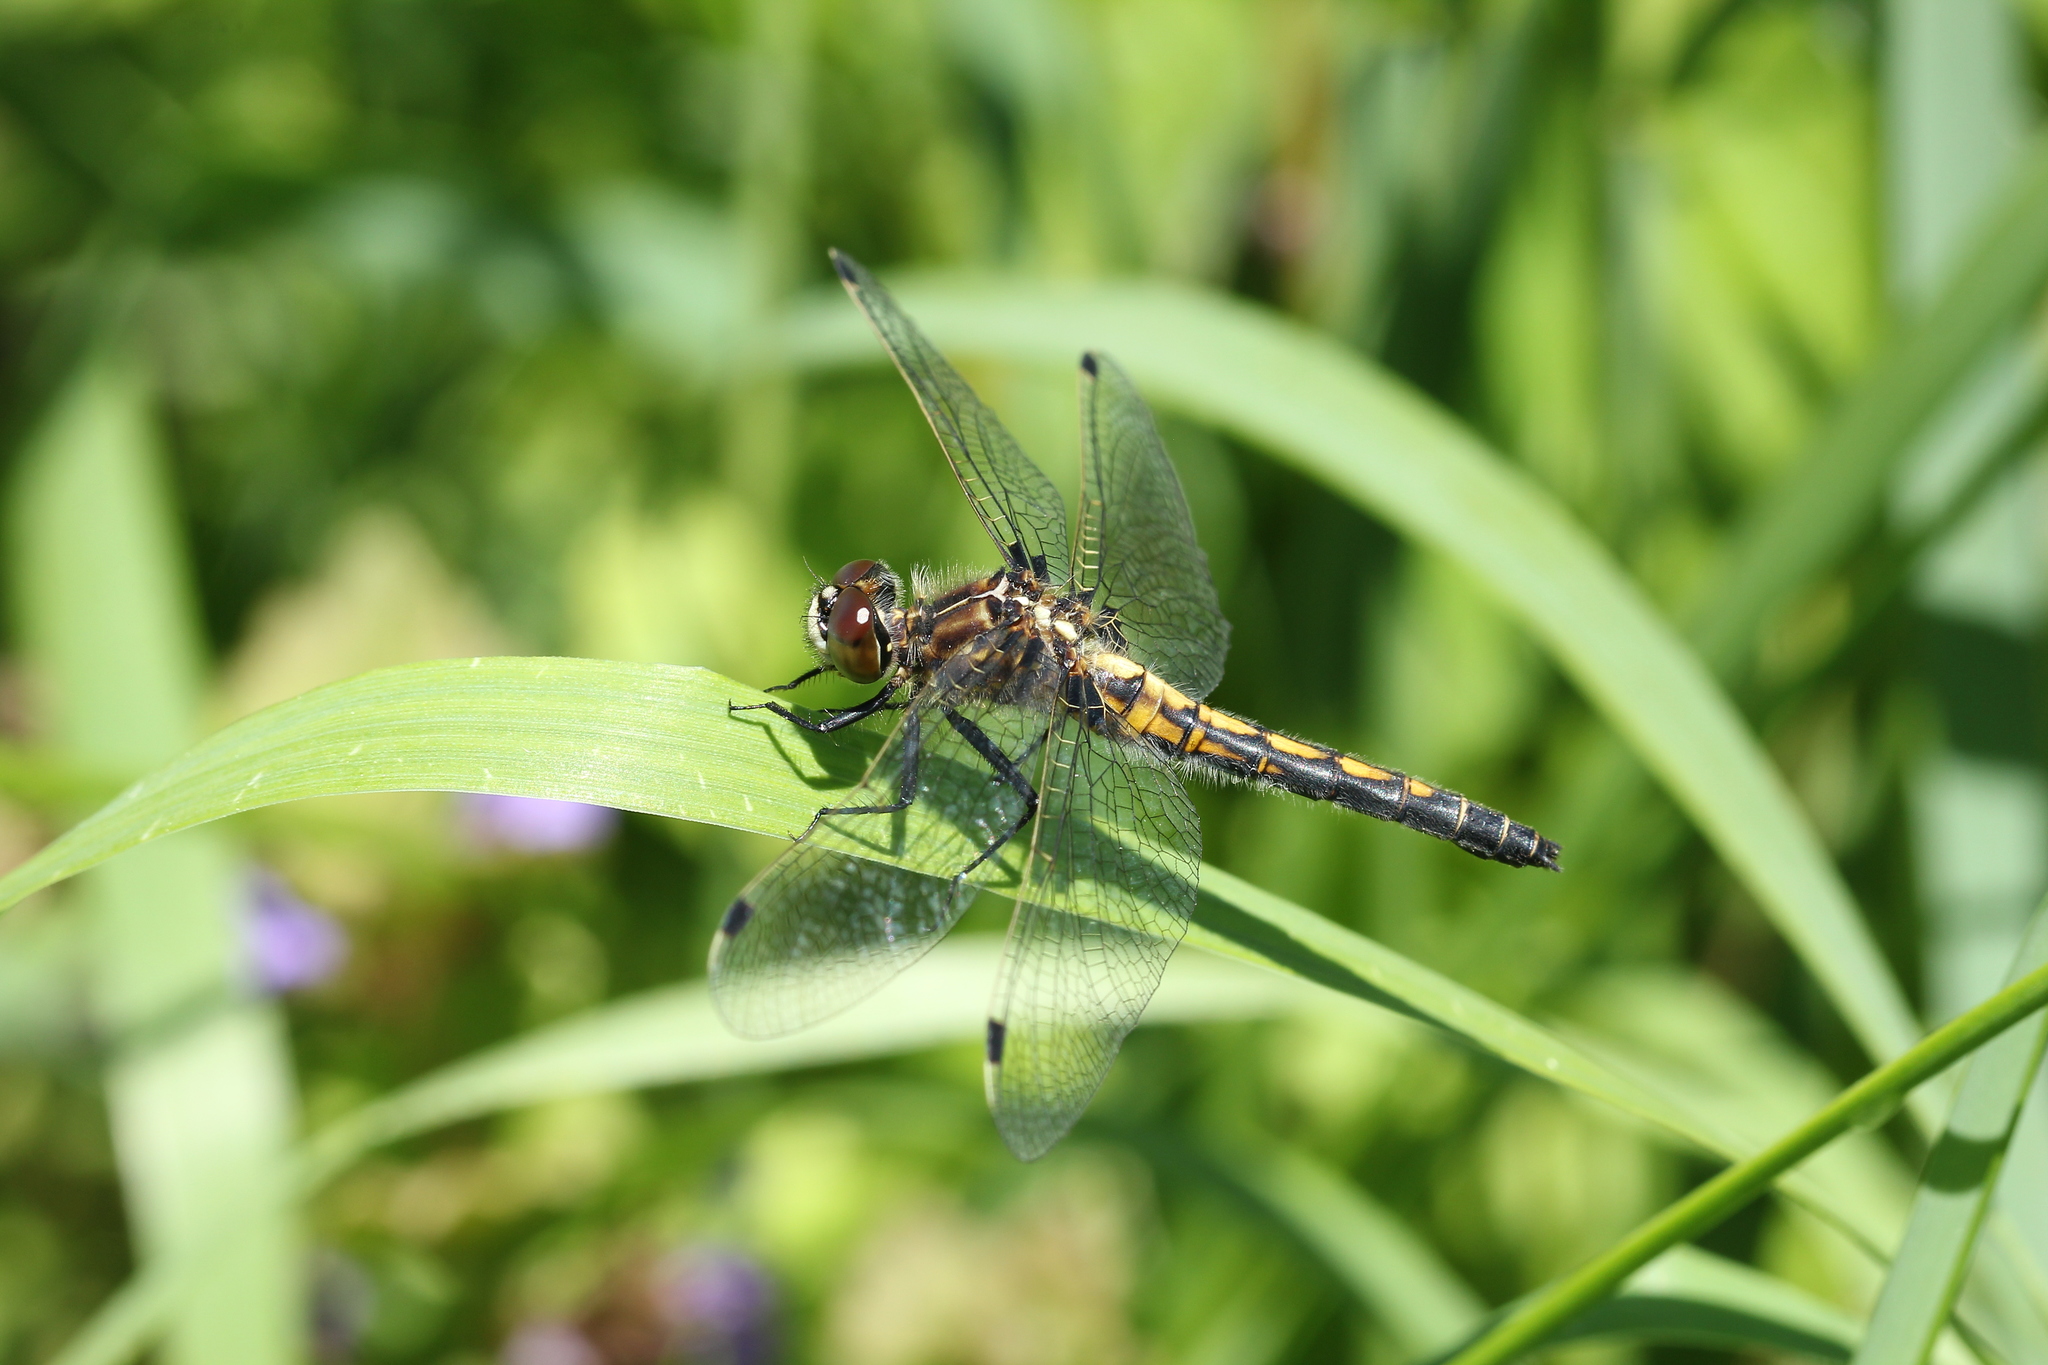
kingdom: Animalia
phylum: Arthropoda
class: Insecta
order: Odonata
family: Libellulidae
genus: Leucorrhinia
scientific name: Leucorrhinia hudsonica
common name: Hudsonian whiteface
